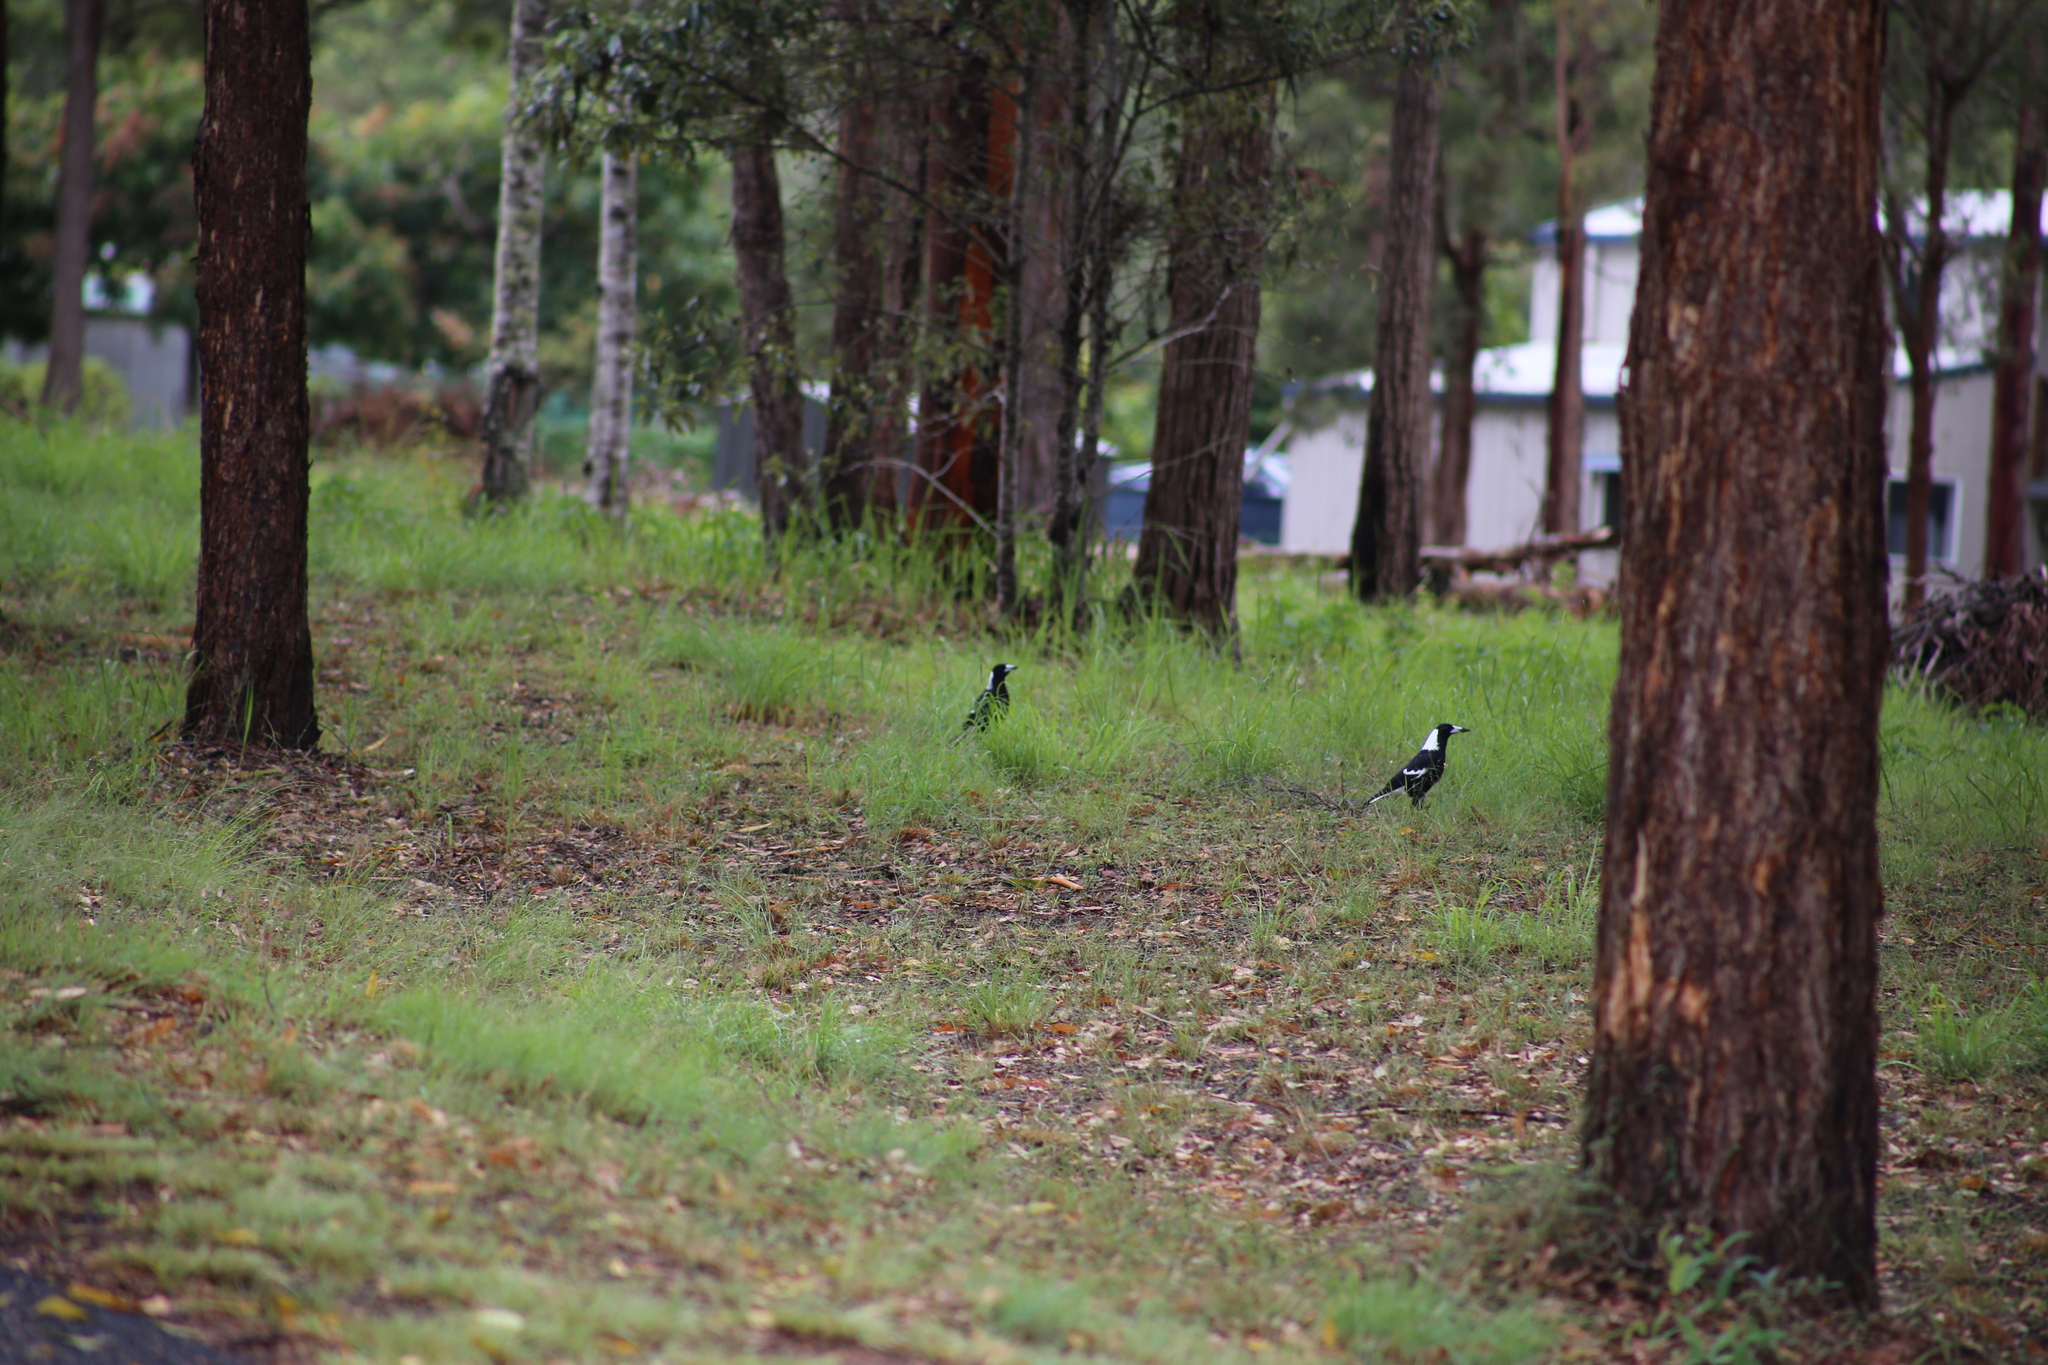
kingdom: Animalia
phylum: Chordata
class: Aves
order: Passeriformes
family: Cracticidae
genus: Gymnorhina
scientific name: Gymnorhina tibicen
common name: Australian magpie
